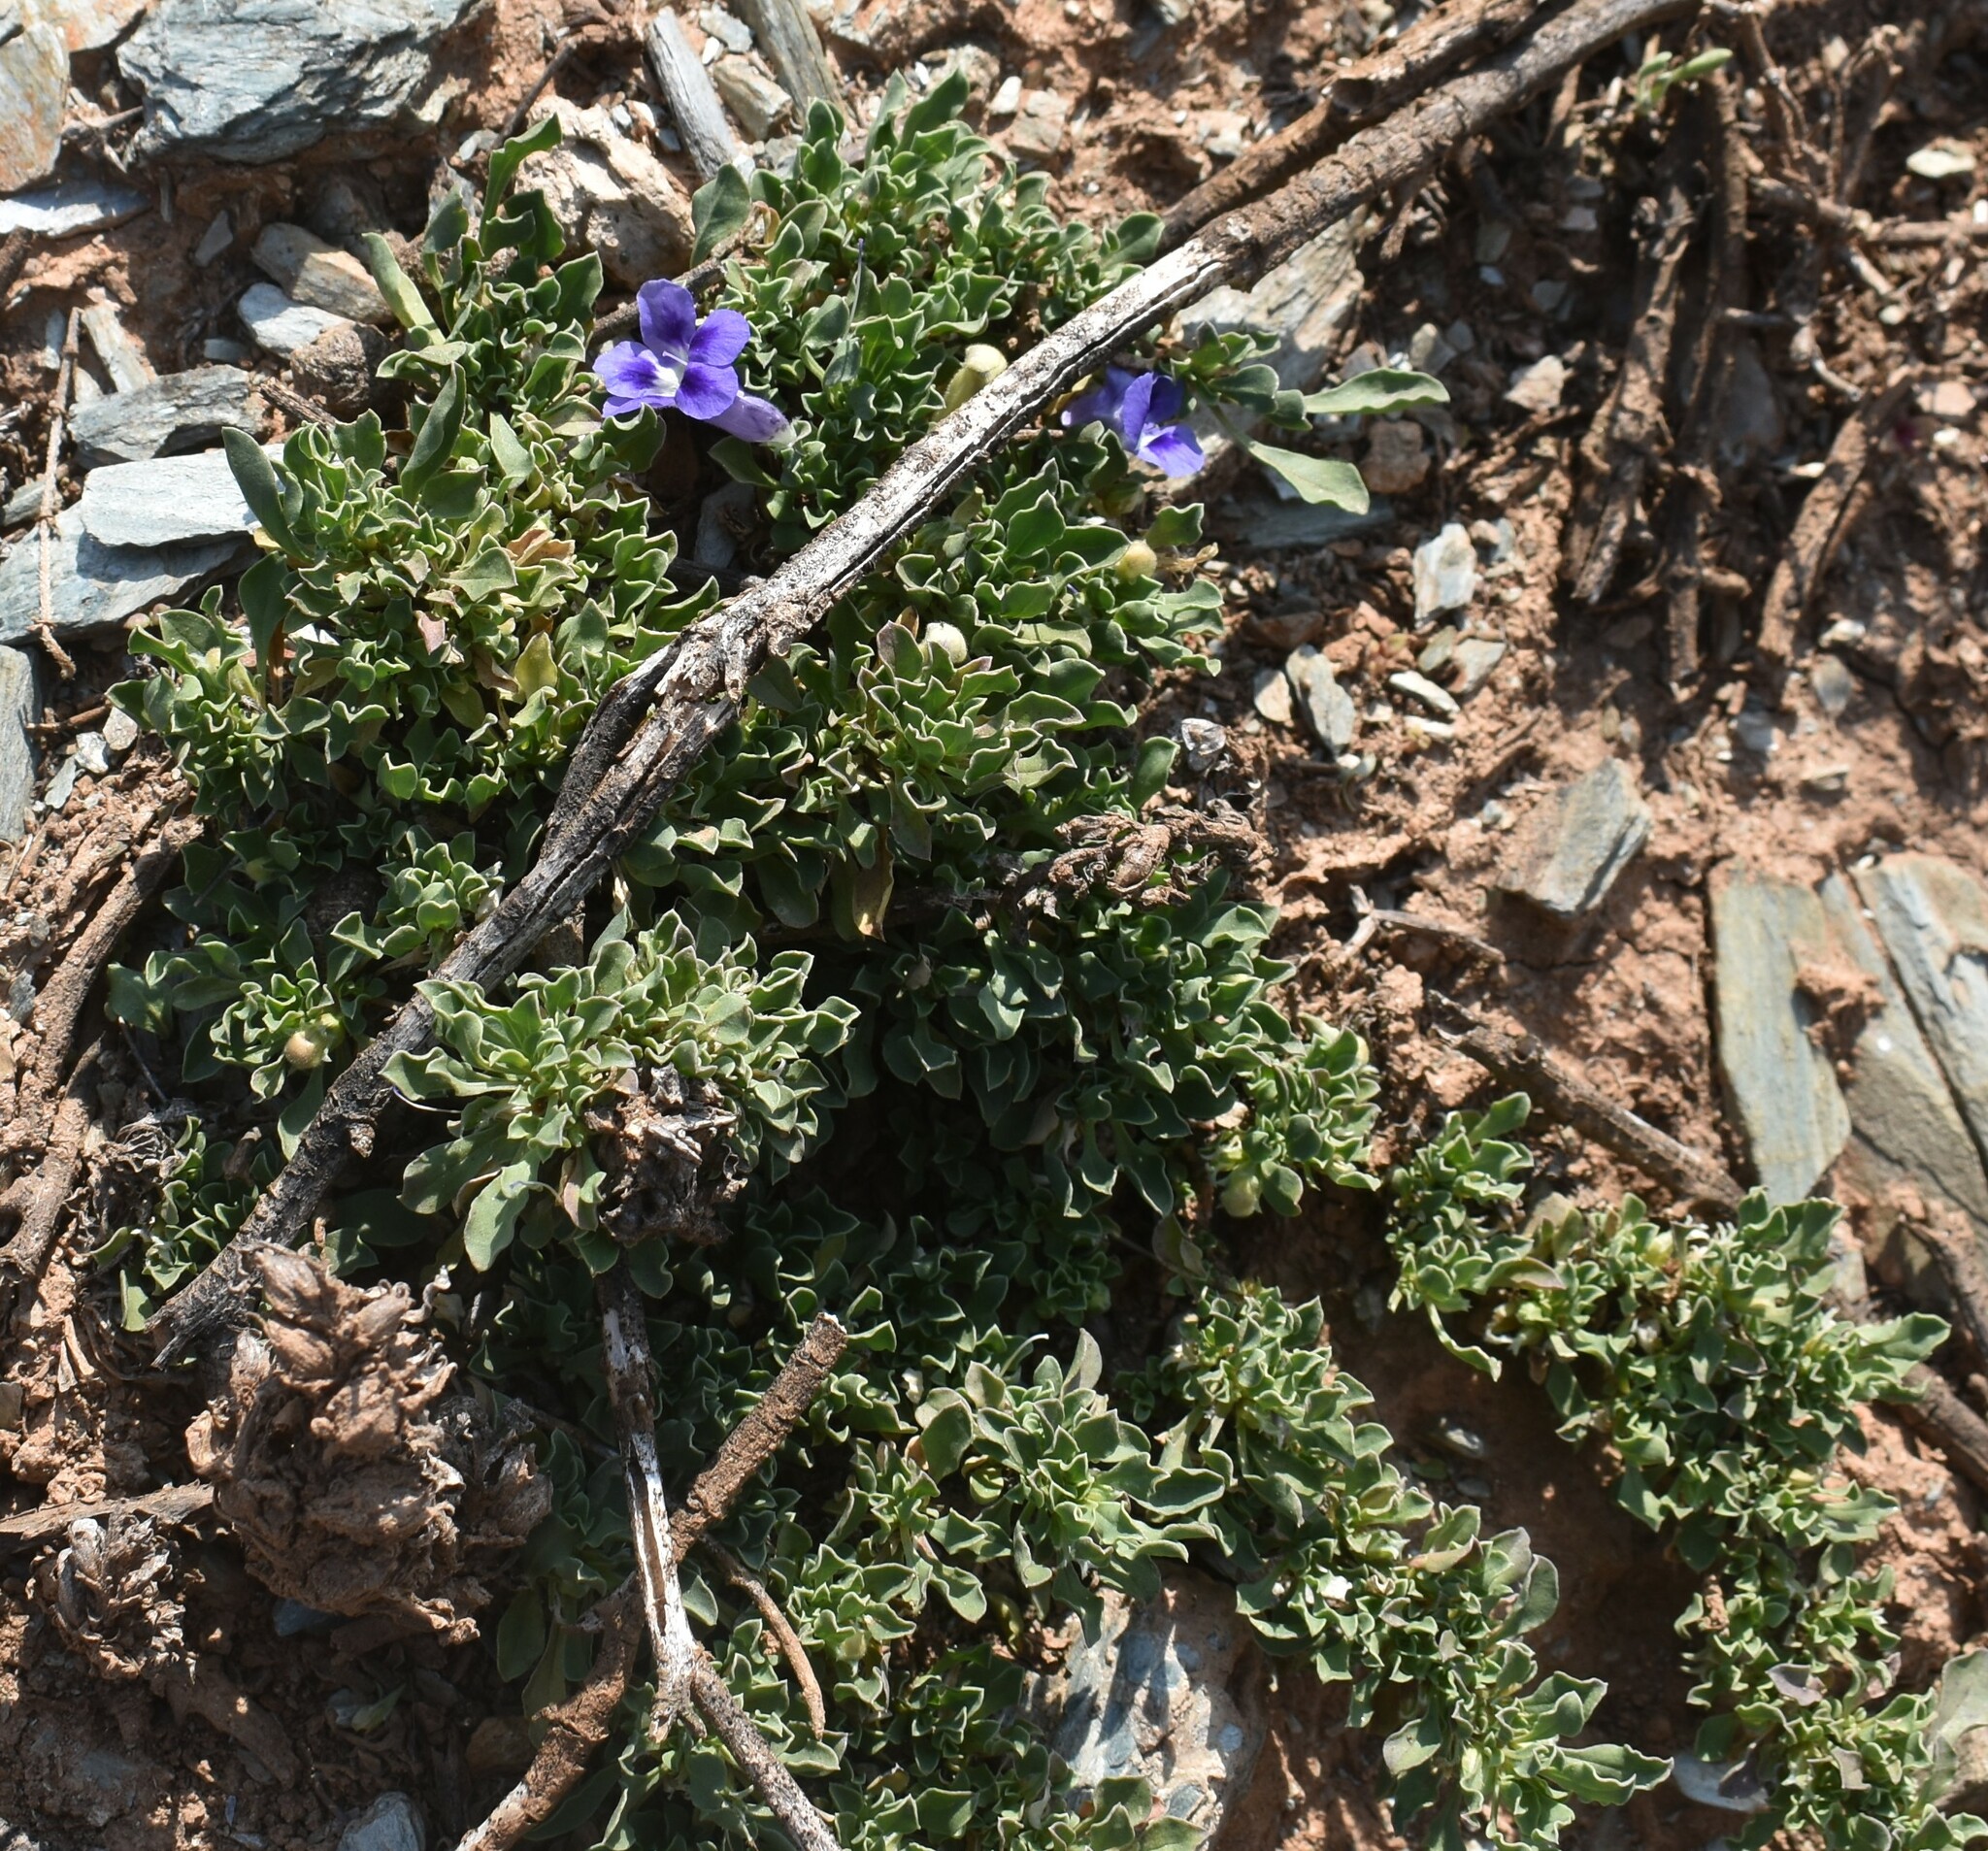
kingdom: Plantae
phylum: Tracheophyta
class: Magnoliopsida
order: Lamiales
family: Scrophulariaceae
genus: Aptosimum
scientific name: Aptosimum indivisum
